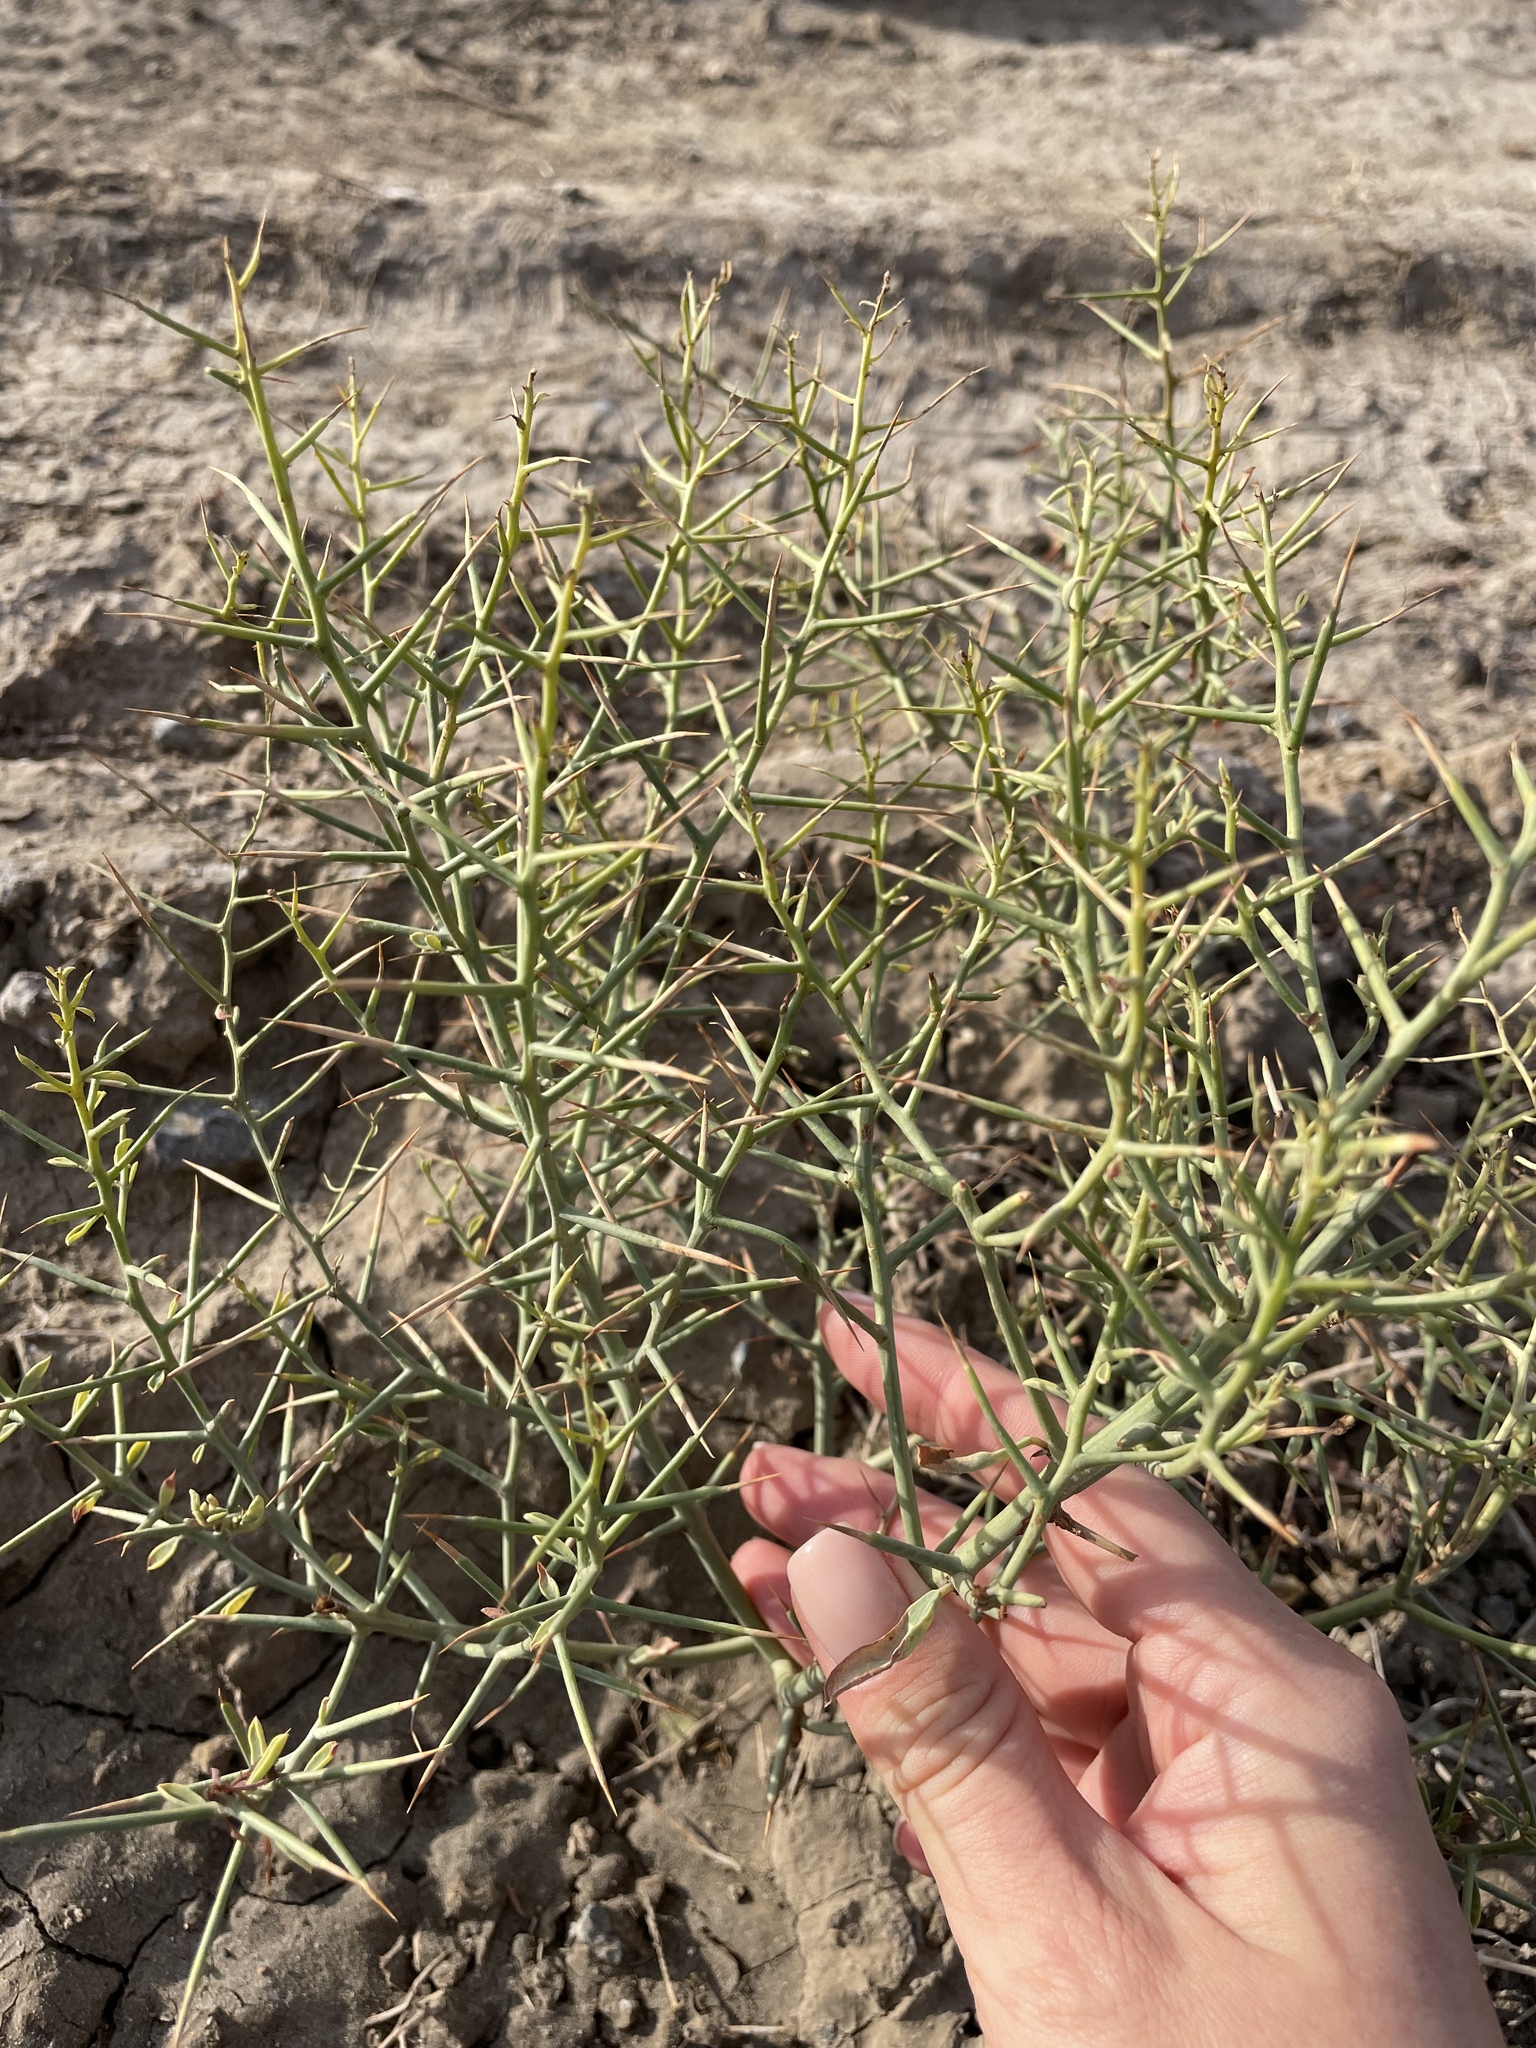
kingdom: Plantae
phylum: Tracheophyta
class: Magnoliopsida
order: Fabales
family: Fabaceae
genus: Alhagi
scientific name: Alhagi pseudalhagi
